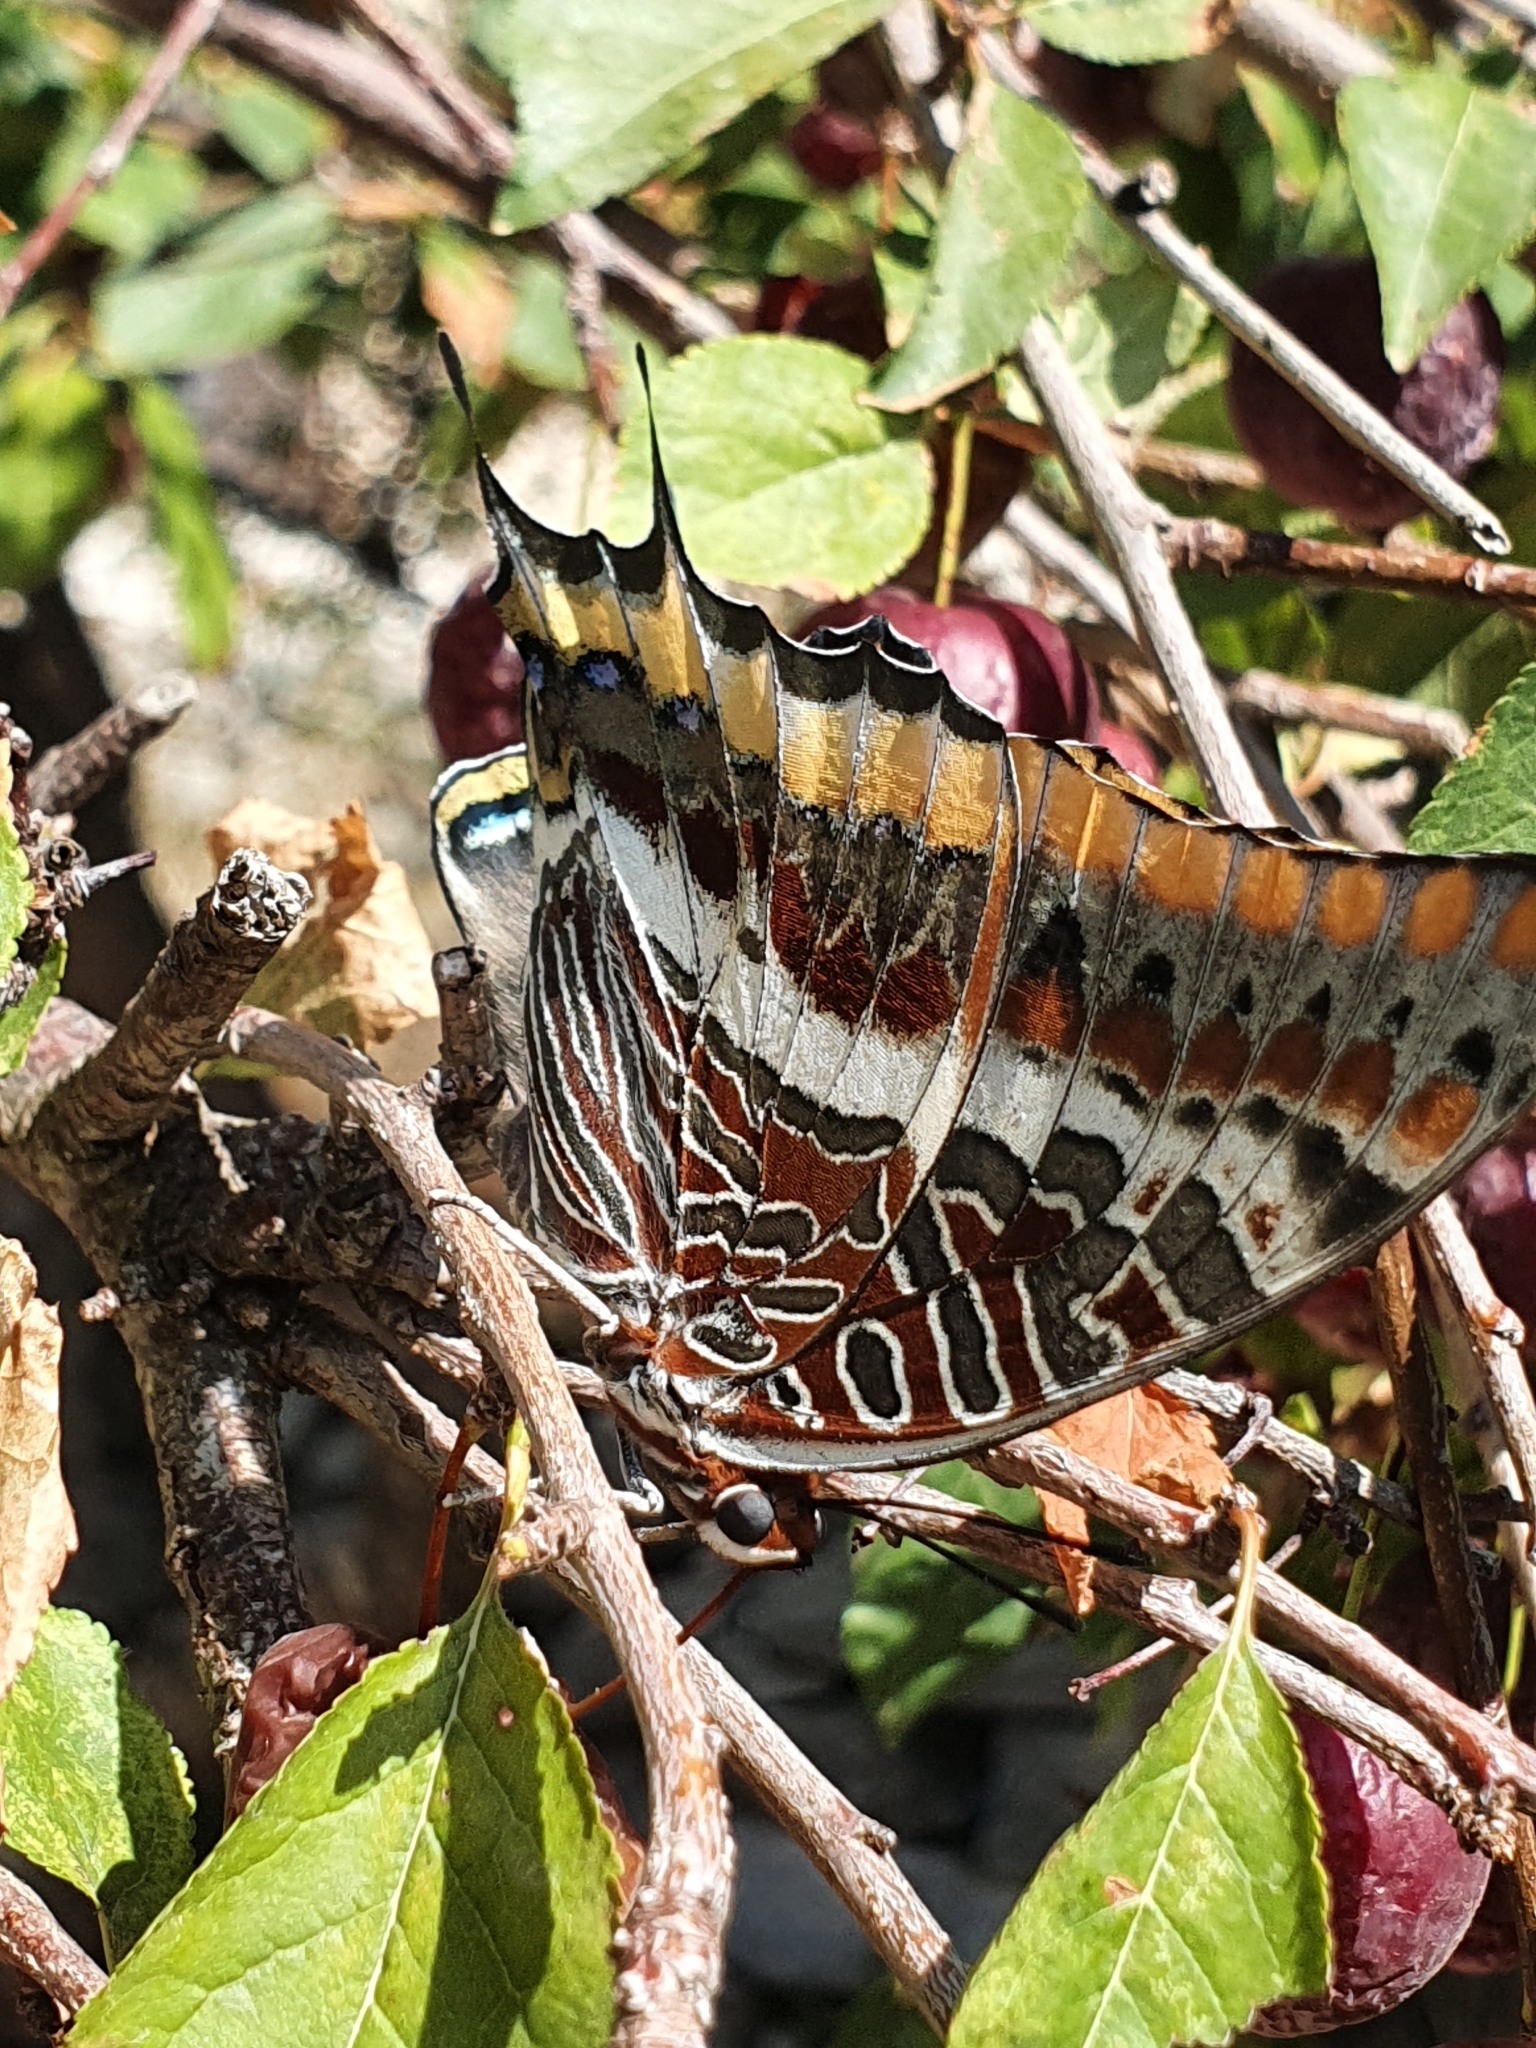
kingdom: Animalia
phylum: Arthropoda
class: Insecta
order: Lepidoptera
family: Nymphalidae
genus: Charaxes
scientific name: Charaxes jasius
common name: Two tailed pasha
